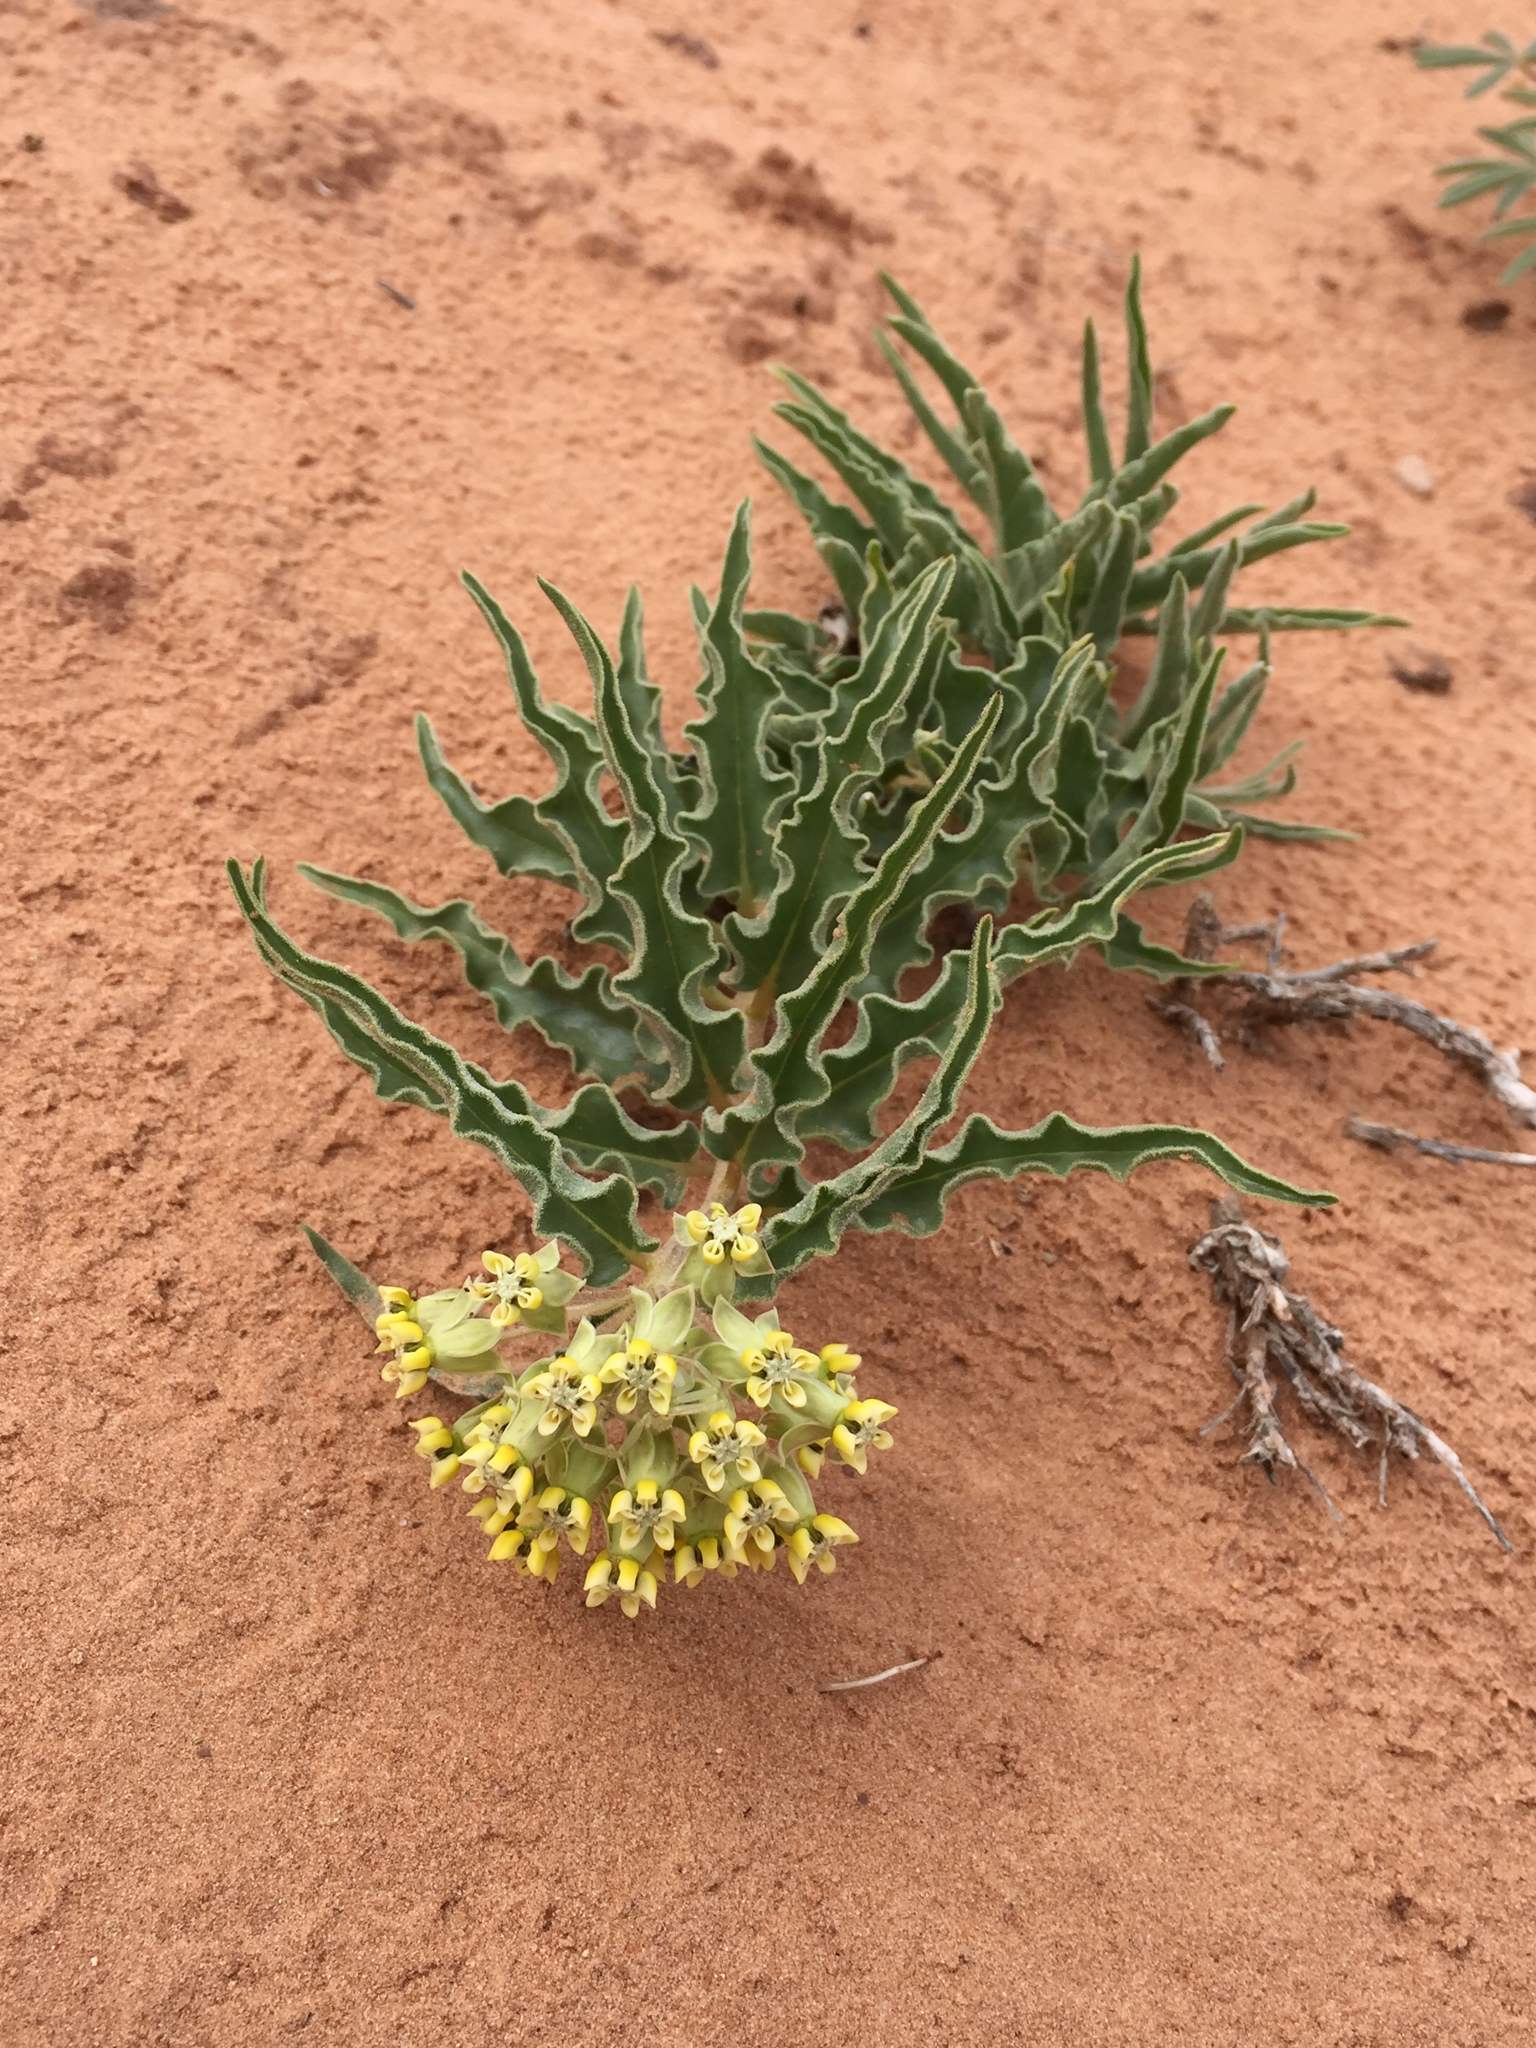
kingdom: Plantae
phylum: Tracheophyta
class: Magnoliopsida
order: Gentianales
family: Apocynaceae
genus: Asclepias
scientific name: Asclepias involucrata
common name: Dwarf milkweed
